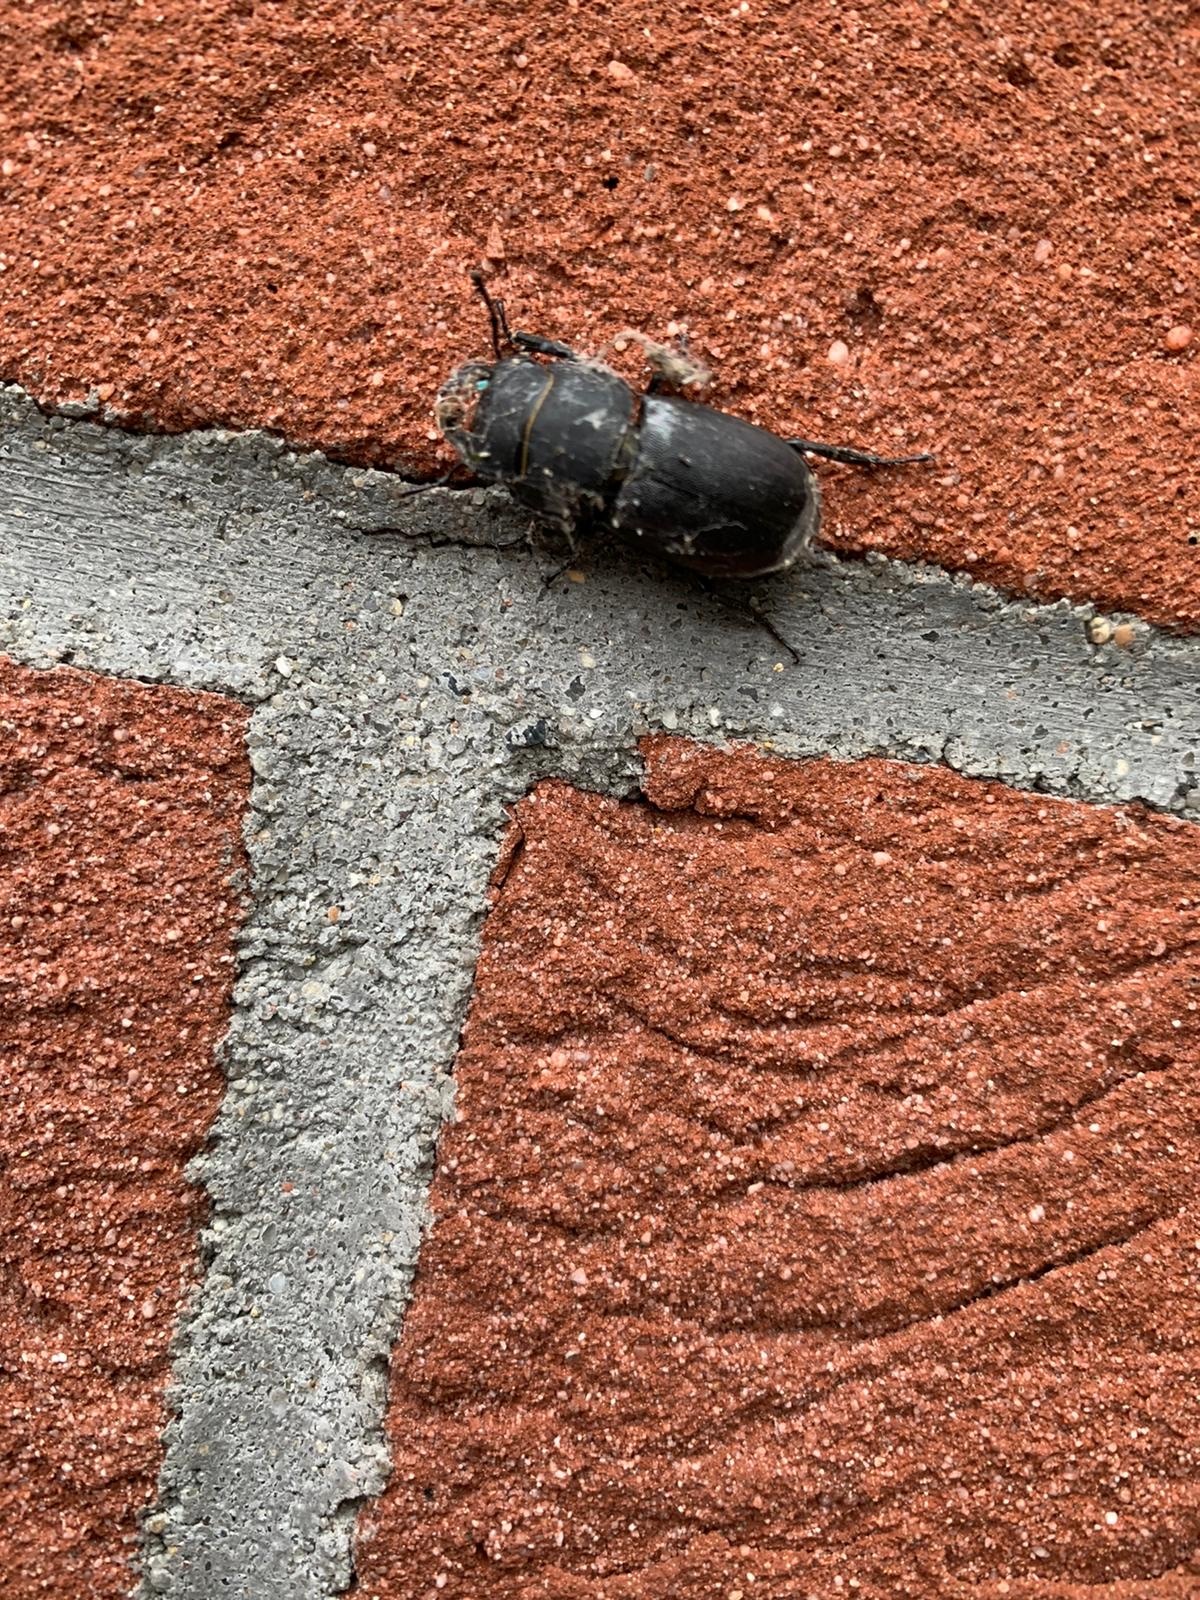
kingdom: Animalia
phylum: Arthropoda
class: Insecta
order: Coleoptera
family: Lucanidae
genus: Dorcus
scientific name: Dorcus parallelipipedus
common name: Lesser stag beetle
